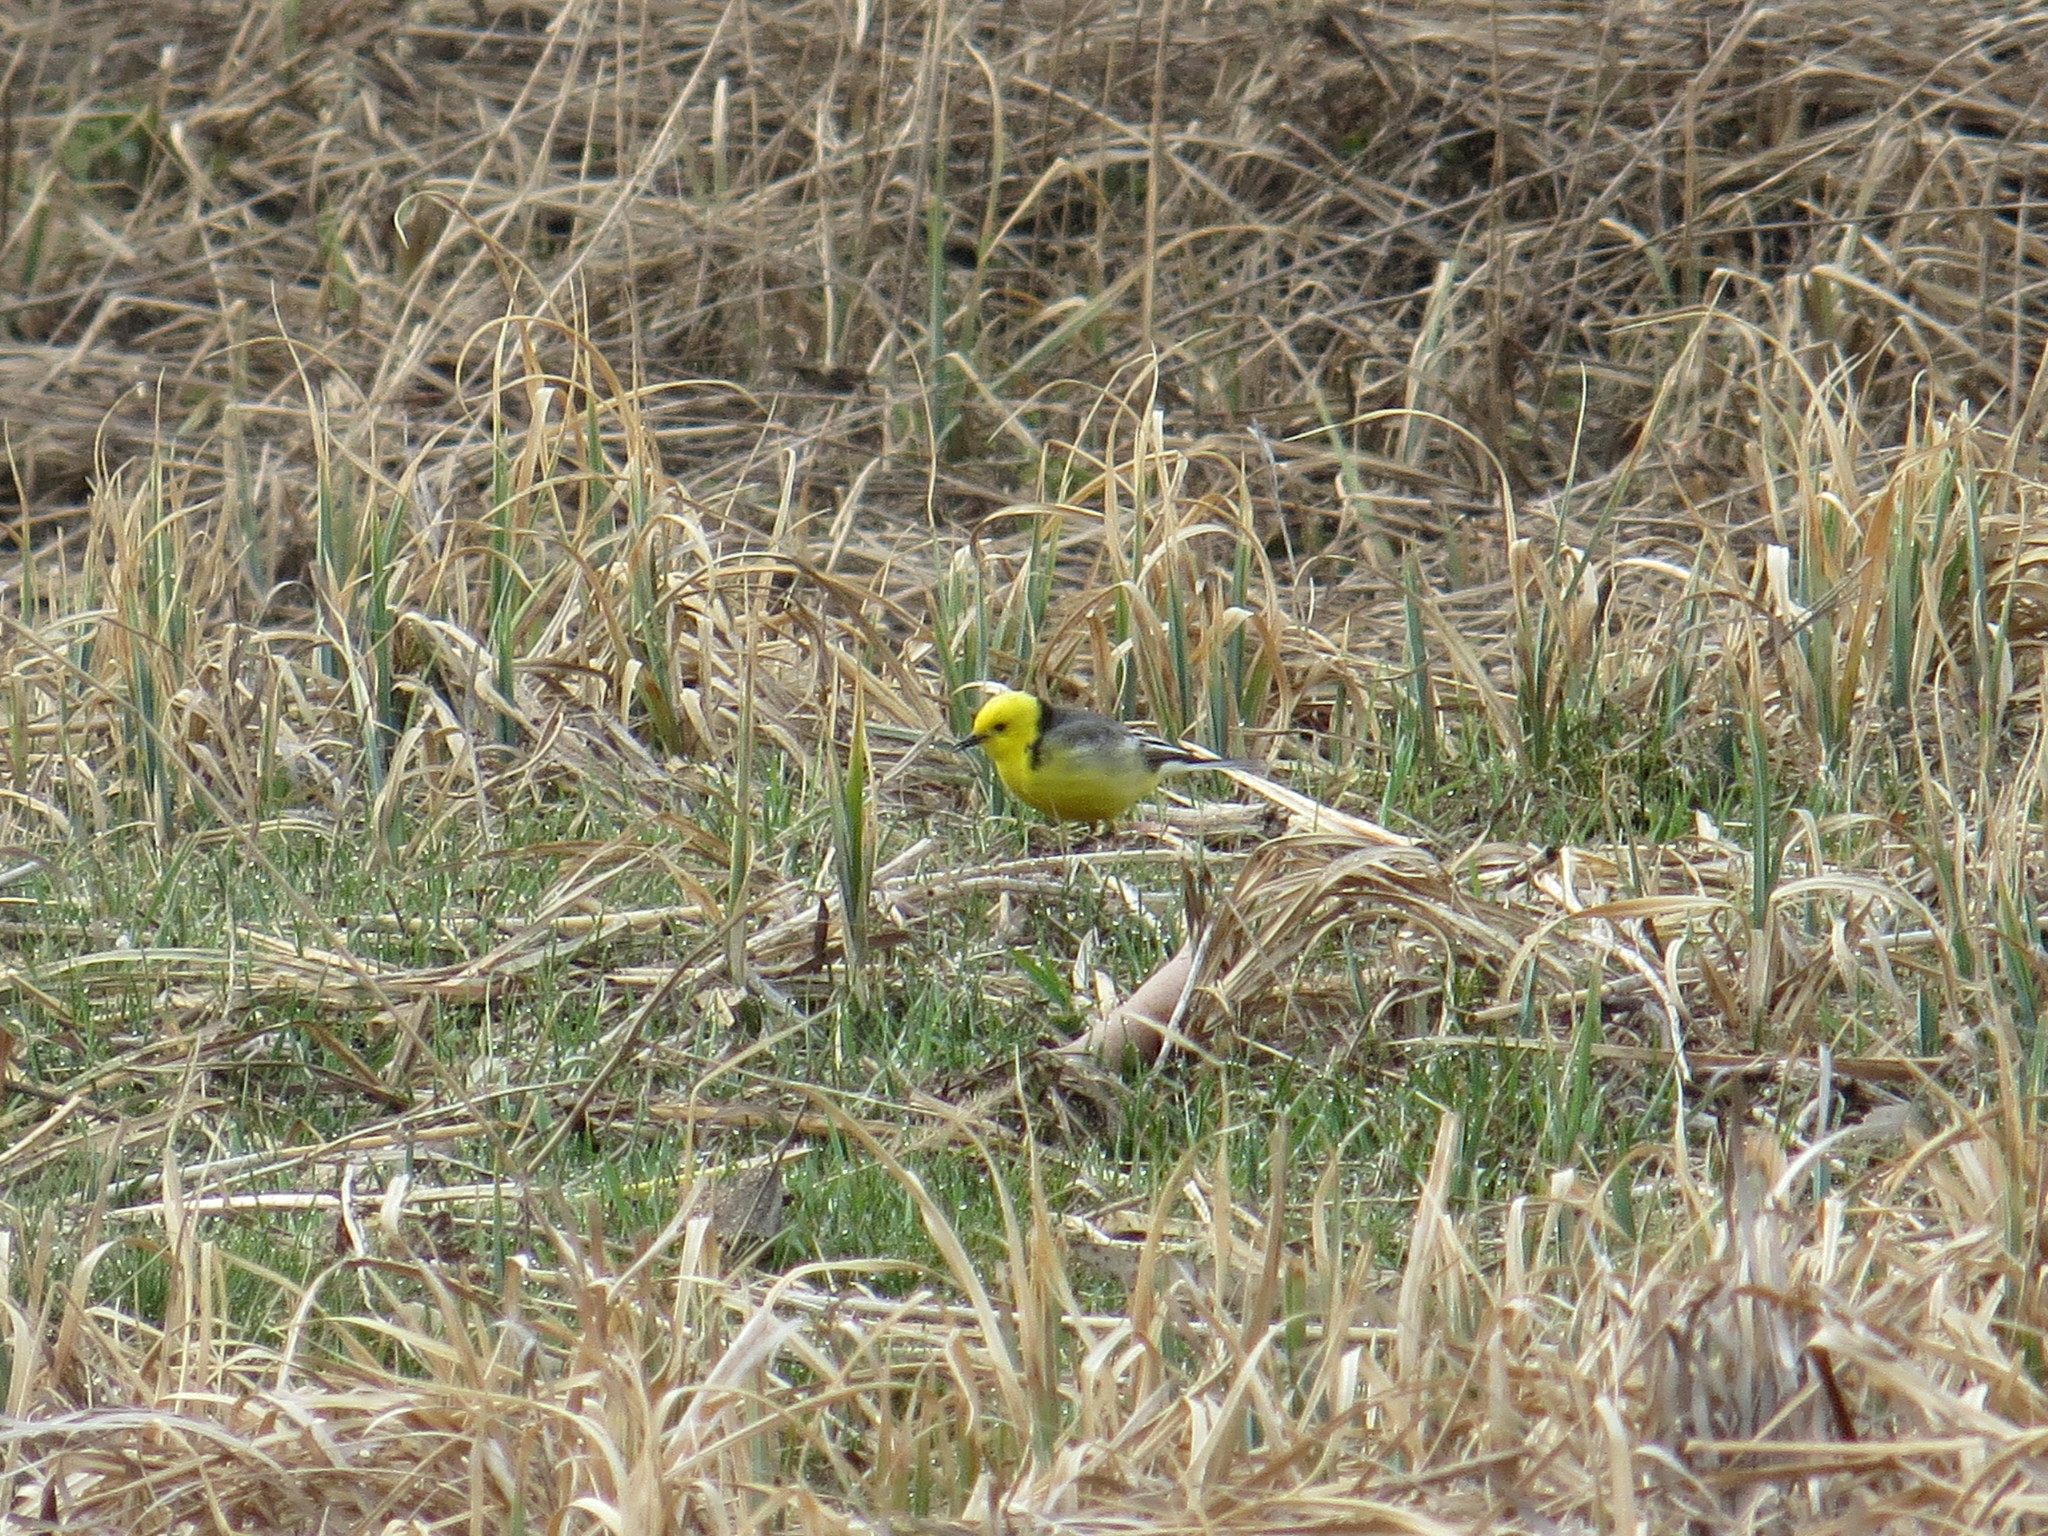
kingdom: Animalia
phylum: Chordata
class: Aves
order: Passeriformes
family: Motacillidae
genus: Motacilla
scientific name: Motacilla citreola
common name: Citrine wagtail
